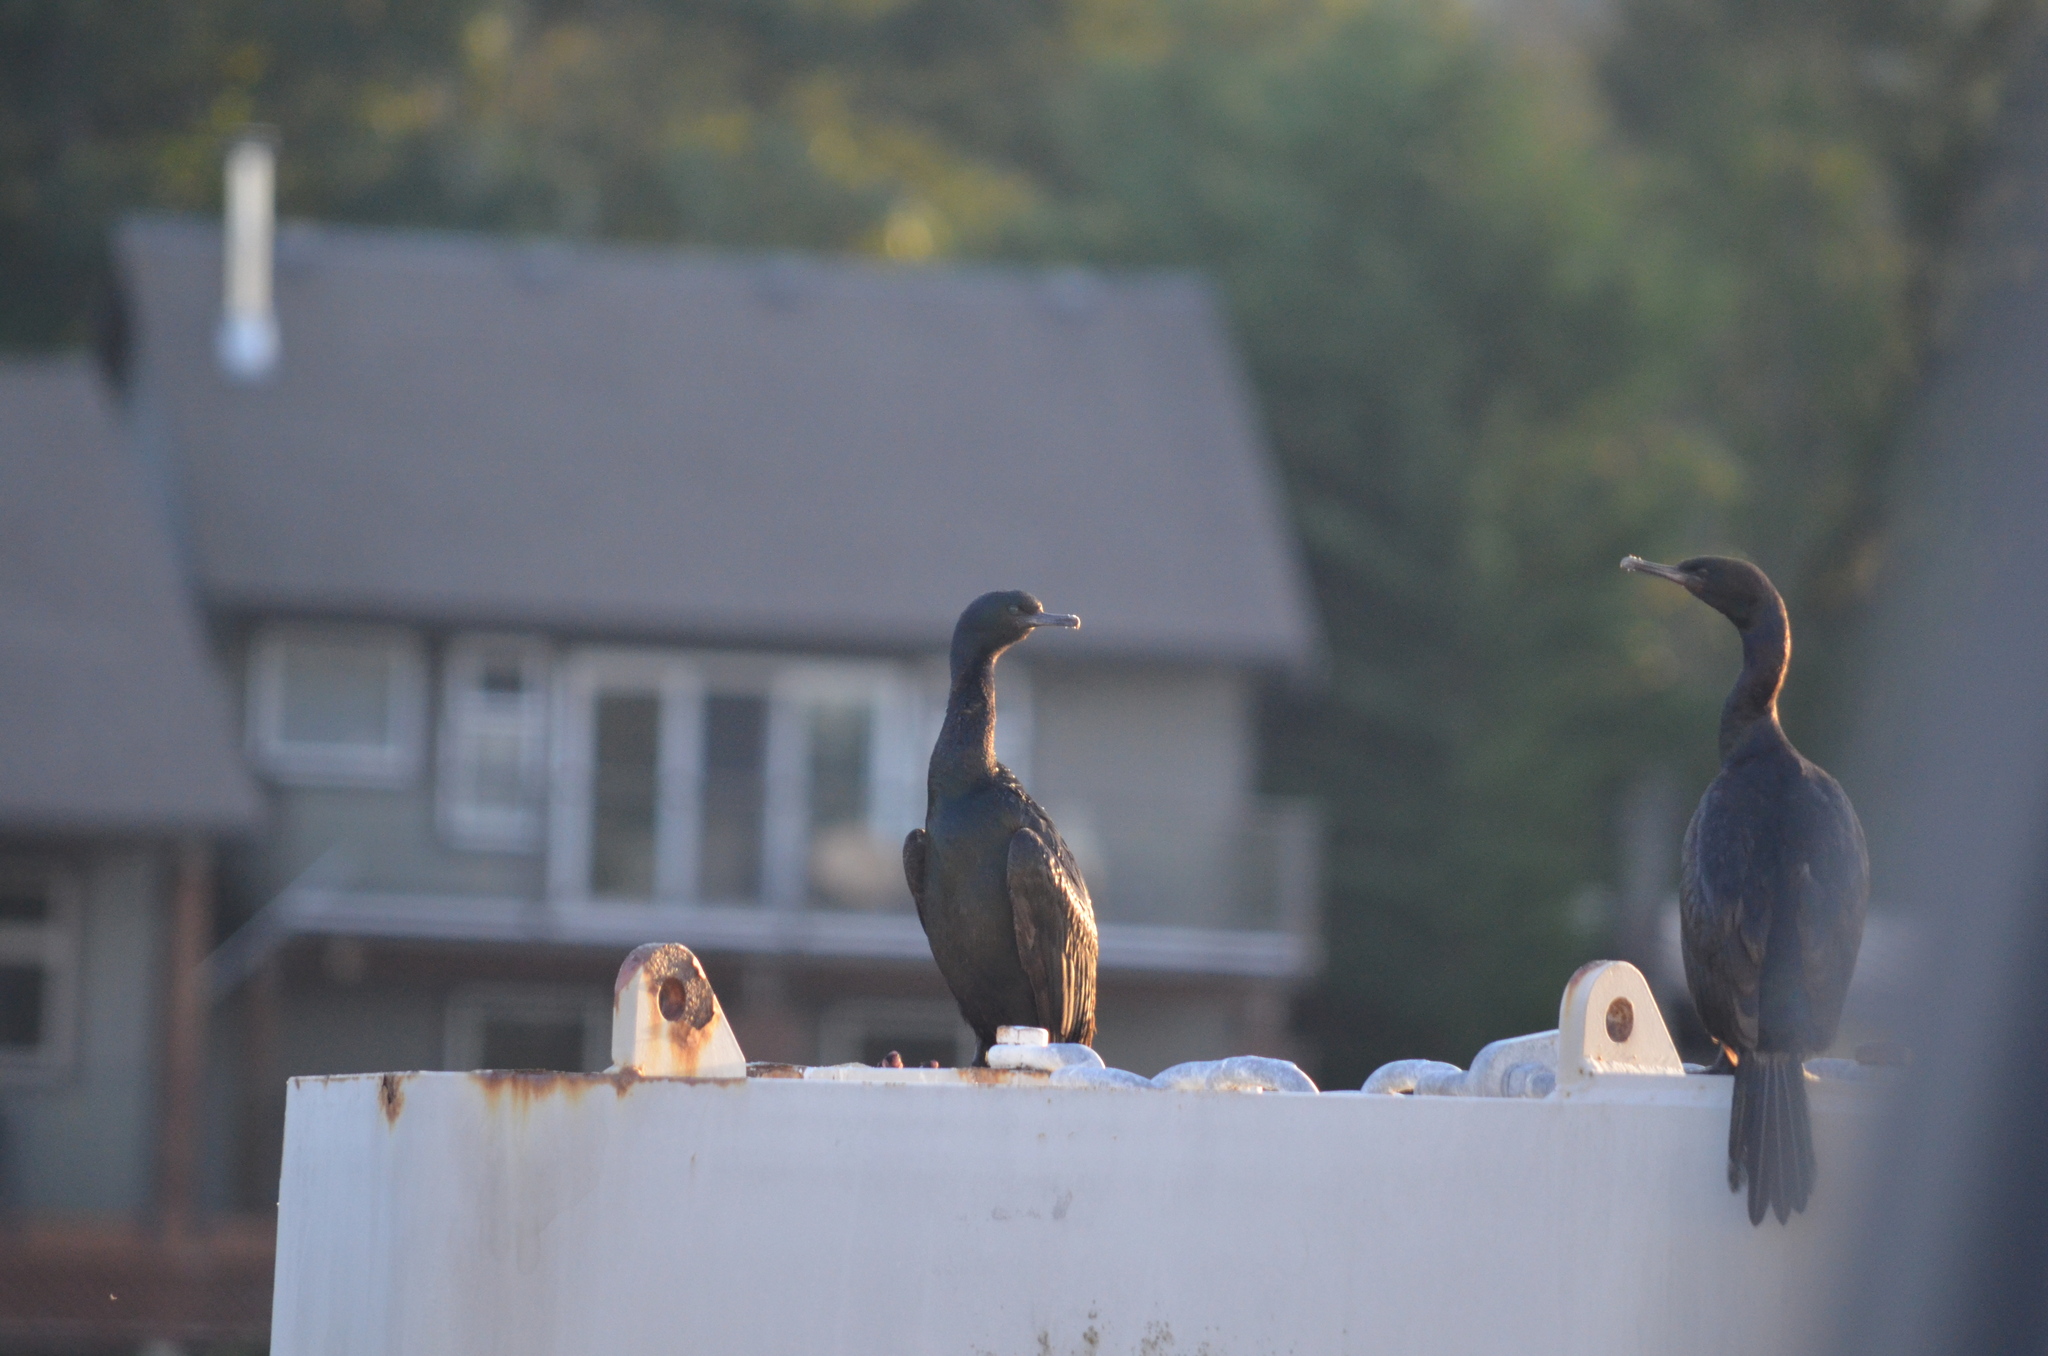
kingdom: Animalia
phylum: Chordata
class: Aves
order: Suliformes
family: Phalacrocoracidae
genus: Phalacrocorax
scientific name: Phalacrocorax pelagicus
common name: Pelagic cormorant
